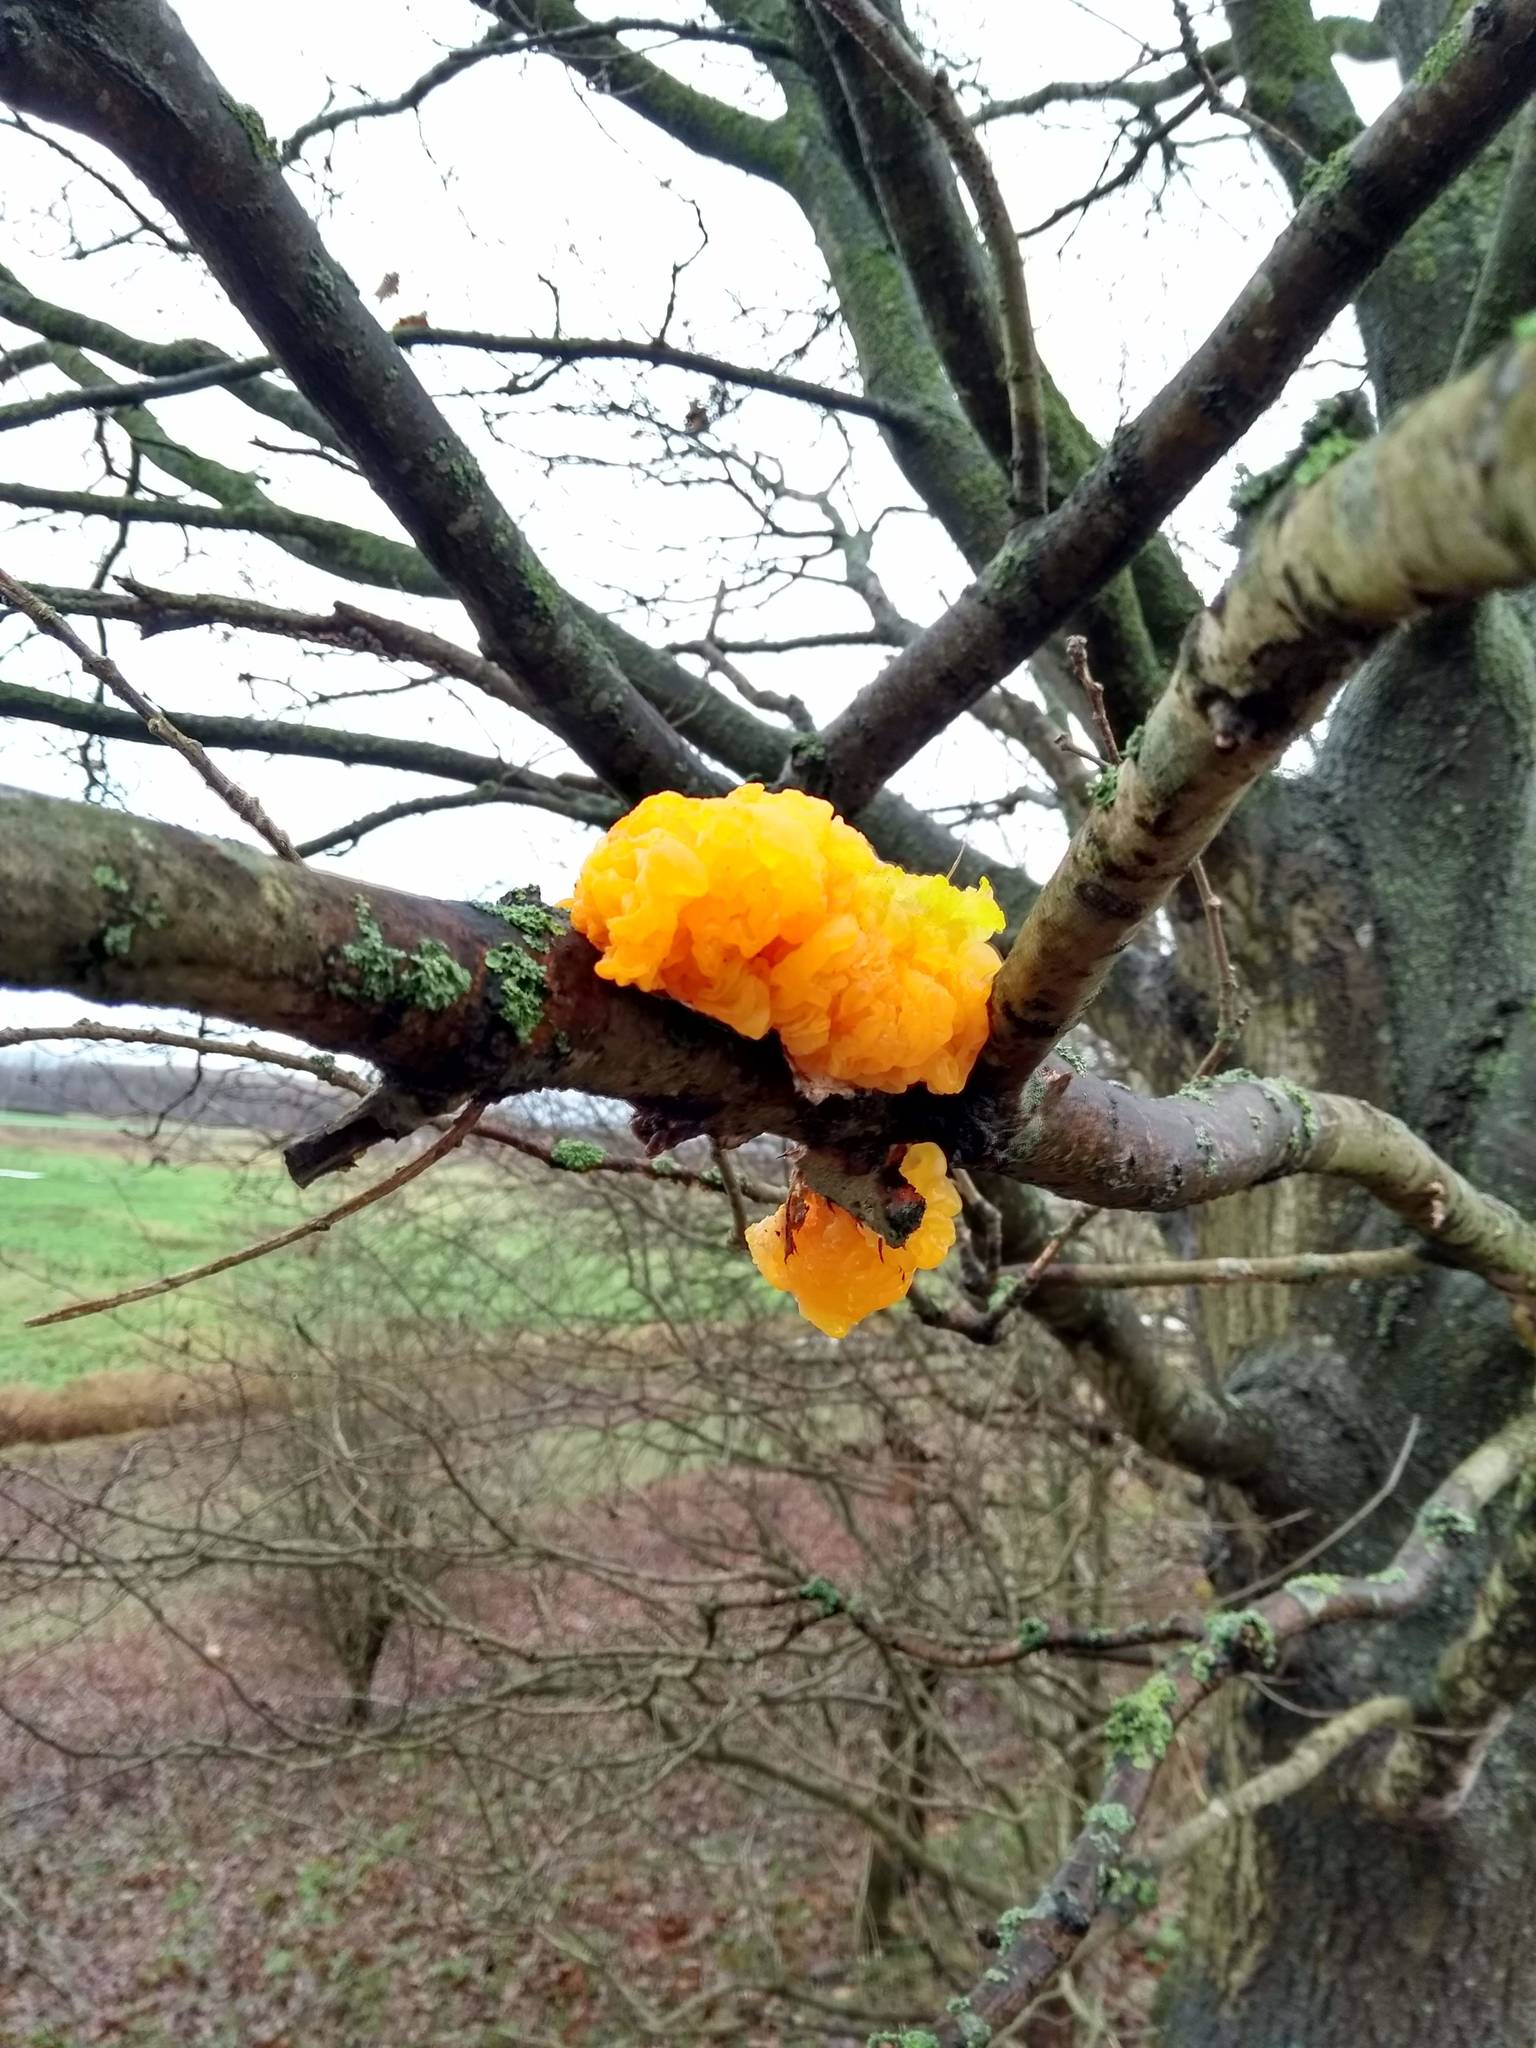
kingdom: Fungi
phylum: Basidiomycota
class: Tremellomycetes
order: Tremellales
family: Tremellaceae
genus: Tremella
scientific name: Tremella mesenterica
